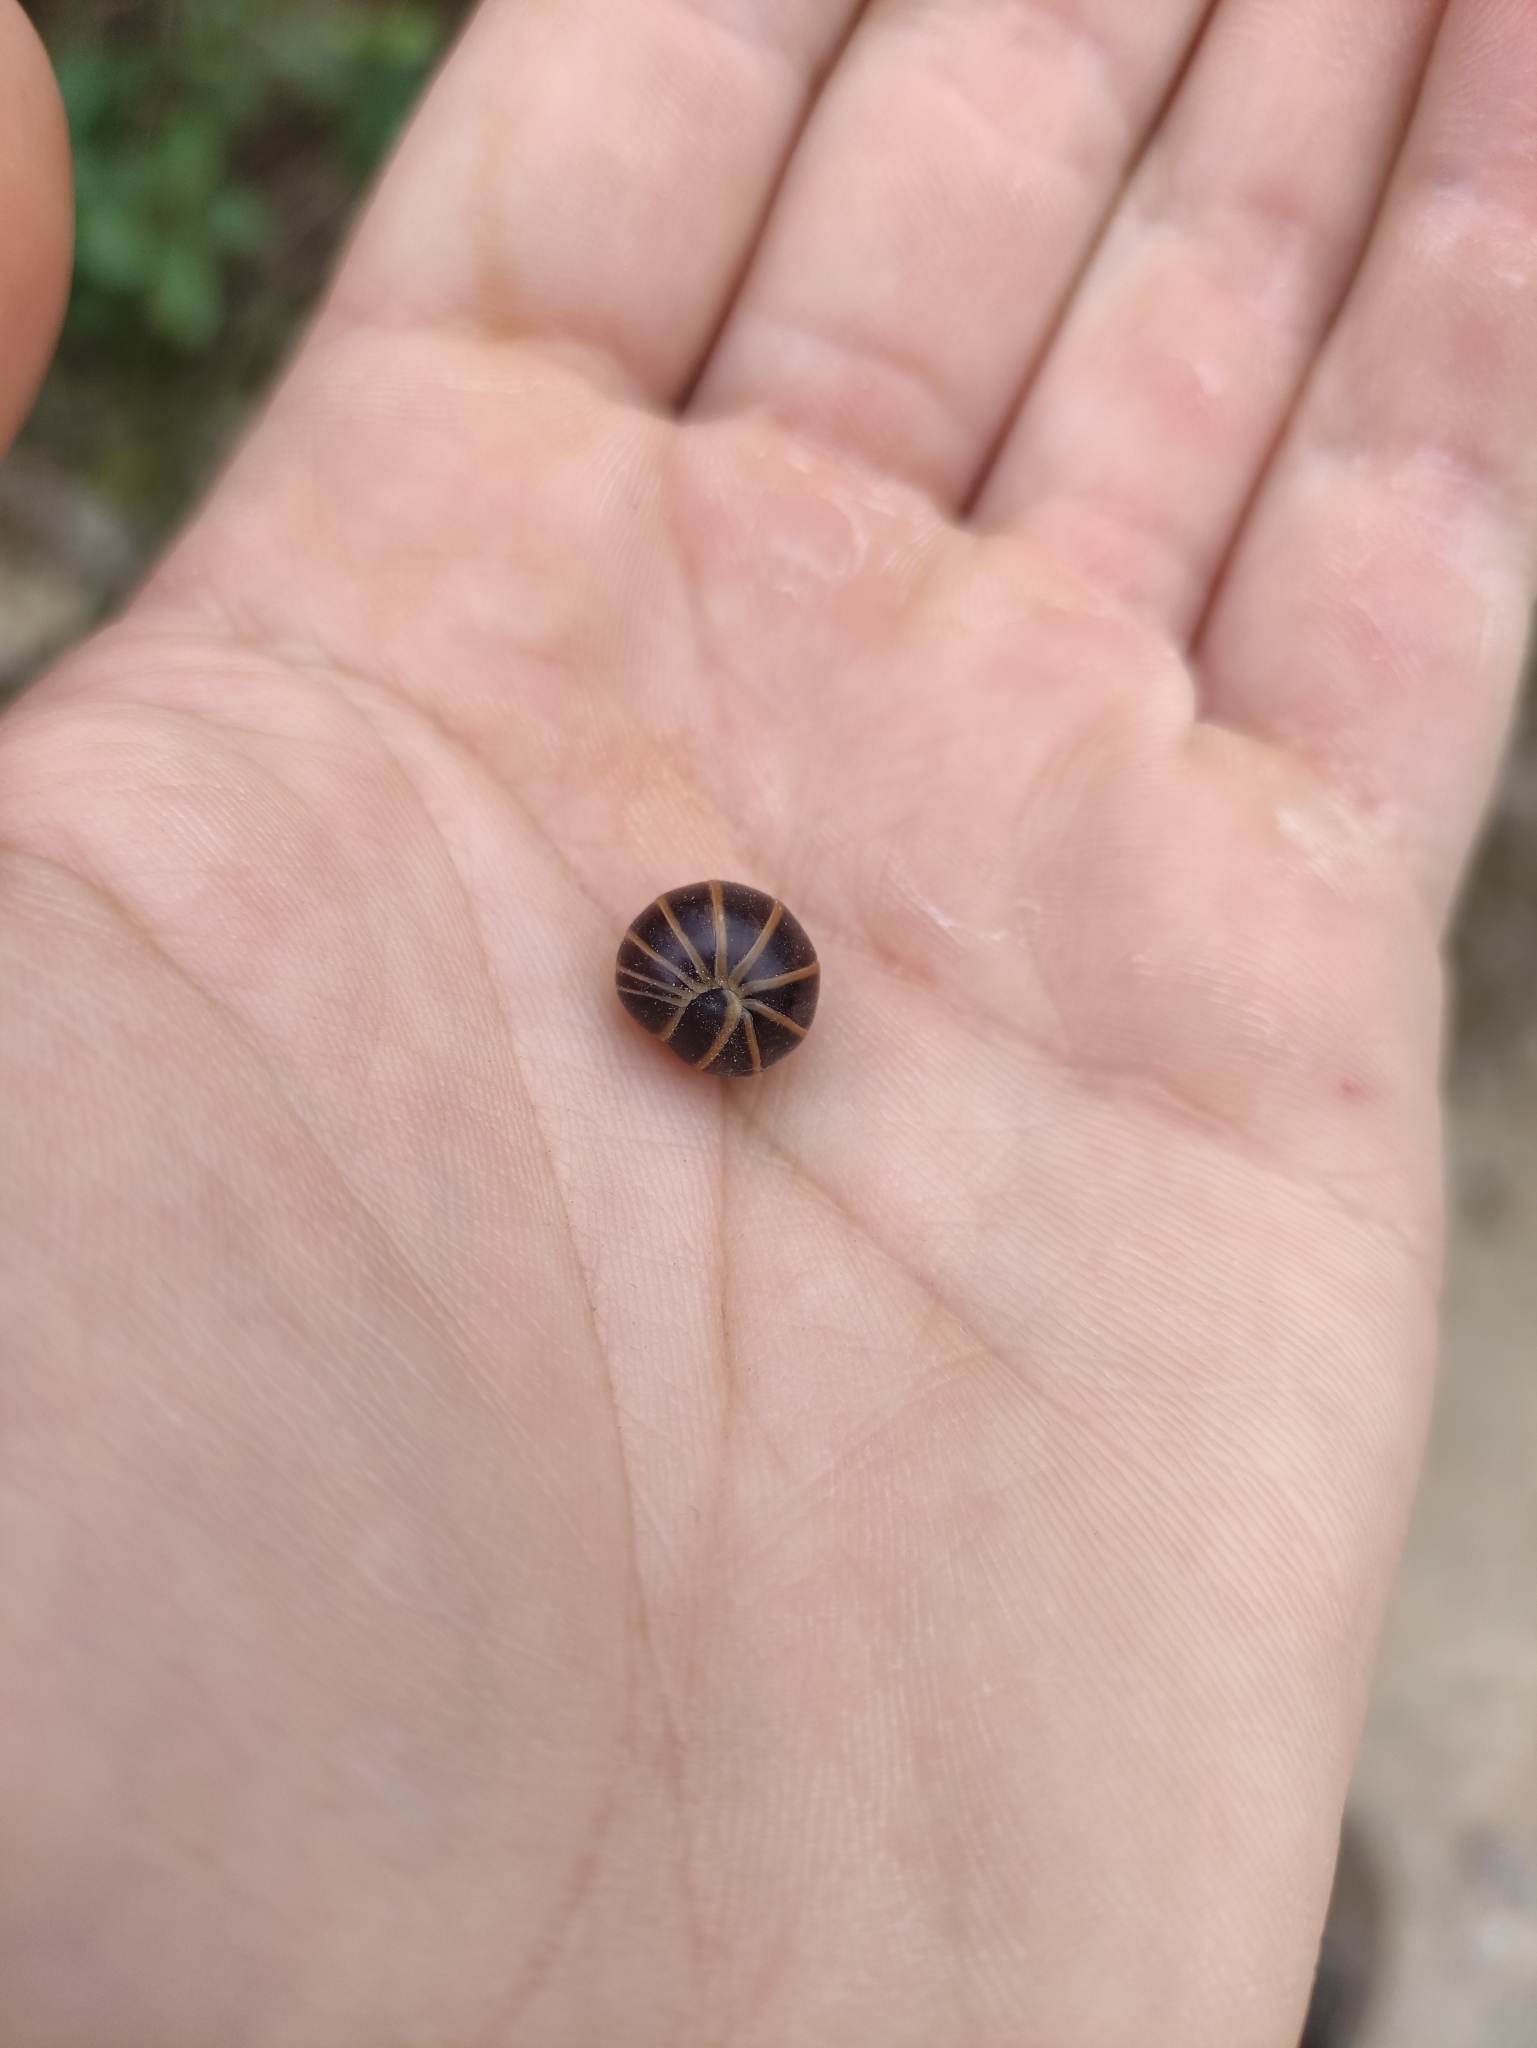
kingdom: Animalia
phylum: Arthropoda
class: Diplopoda
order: Glomerida
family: Glomeridae
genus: Glomeris
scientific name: Glomeris marginata
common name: Bordered pill millipede
